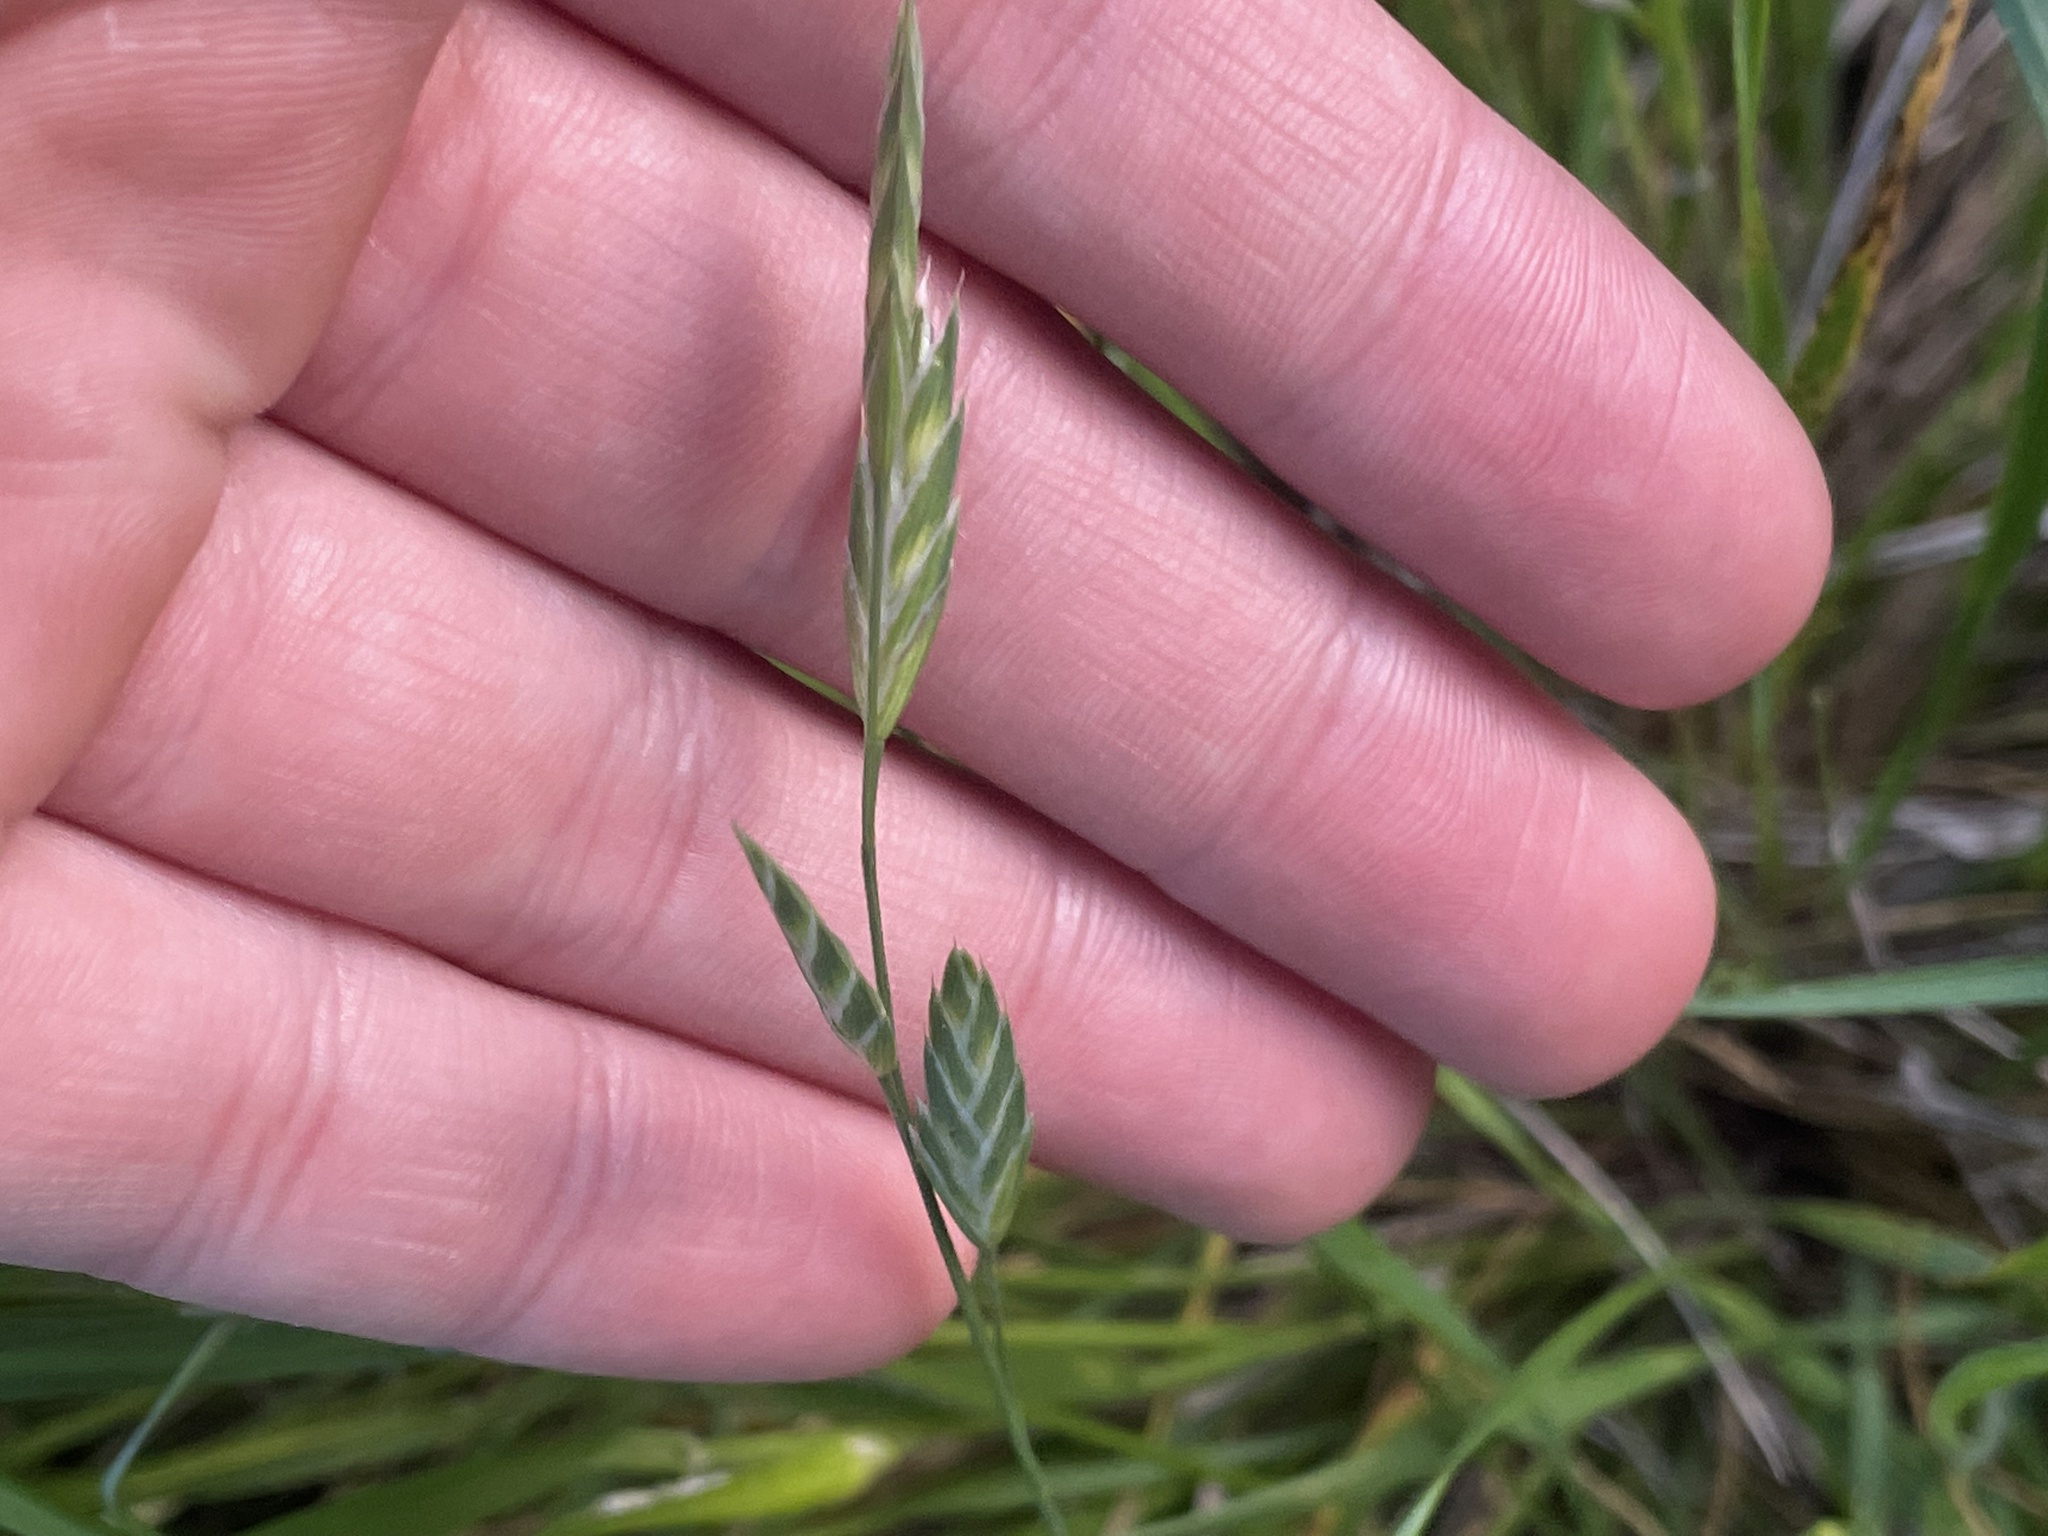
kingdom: Plantae
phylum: Tracheophyta
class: Liliopsida
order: Poales
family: Poaceae
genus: Bromus
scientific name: Bromus catharticus
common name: Rescuegrass
